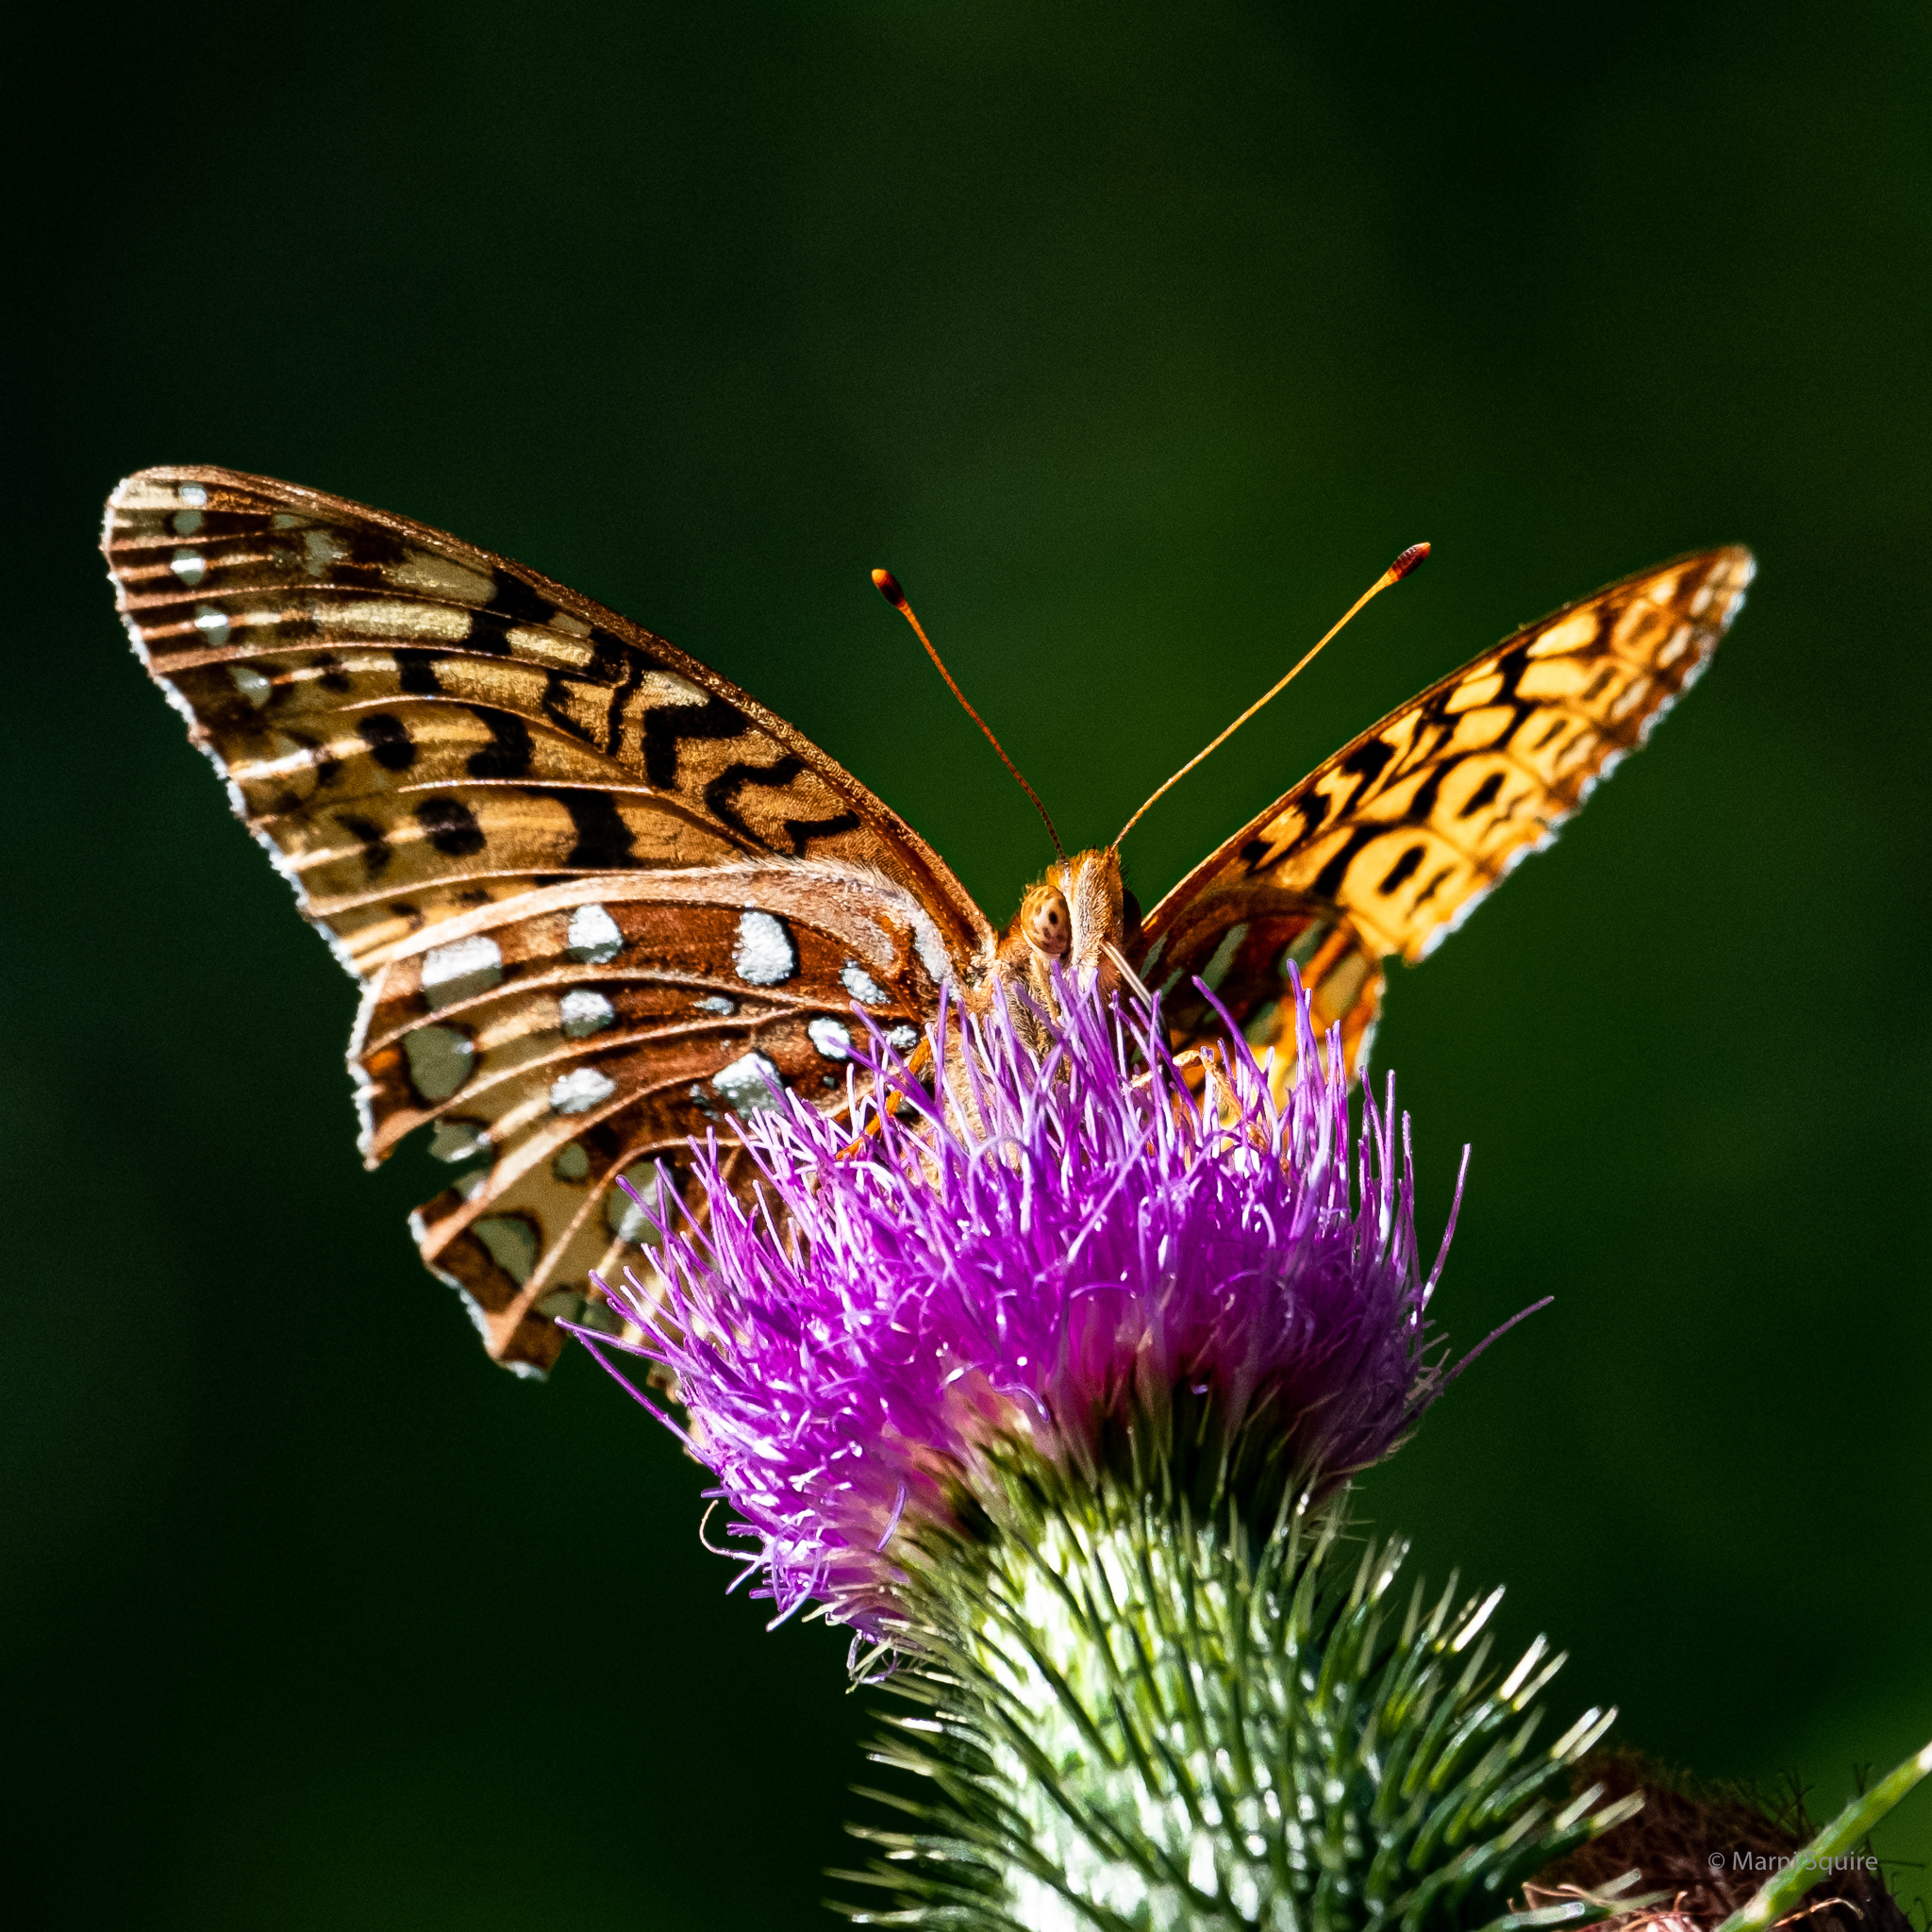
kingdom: Animalia
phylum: Arthropoda
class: Insecta
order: Lepidoptera
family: Nymphalidae
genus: Speyeria
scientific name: Speyeria cybele
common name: Great spangled fritillary
